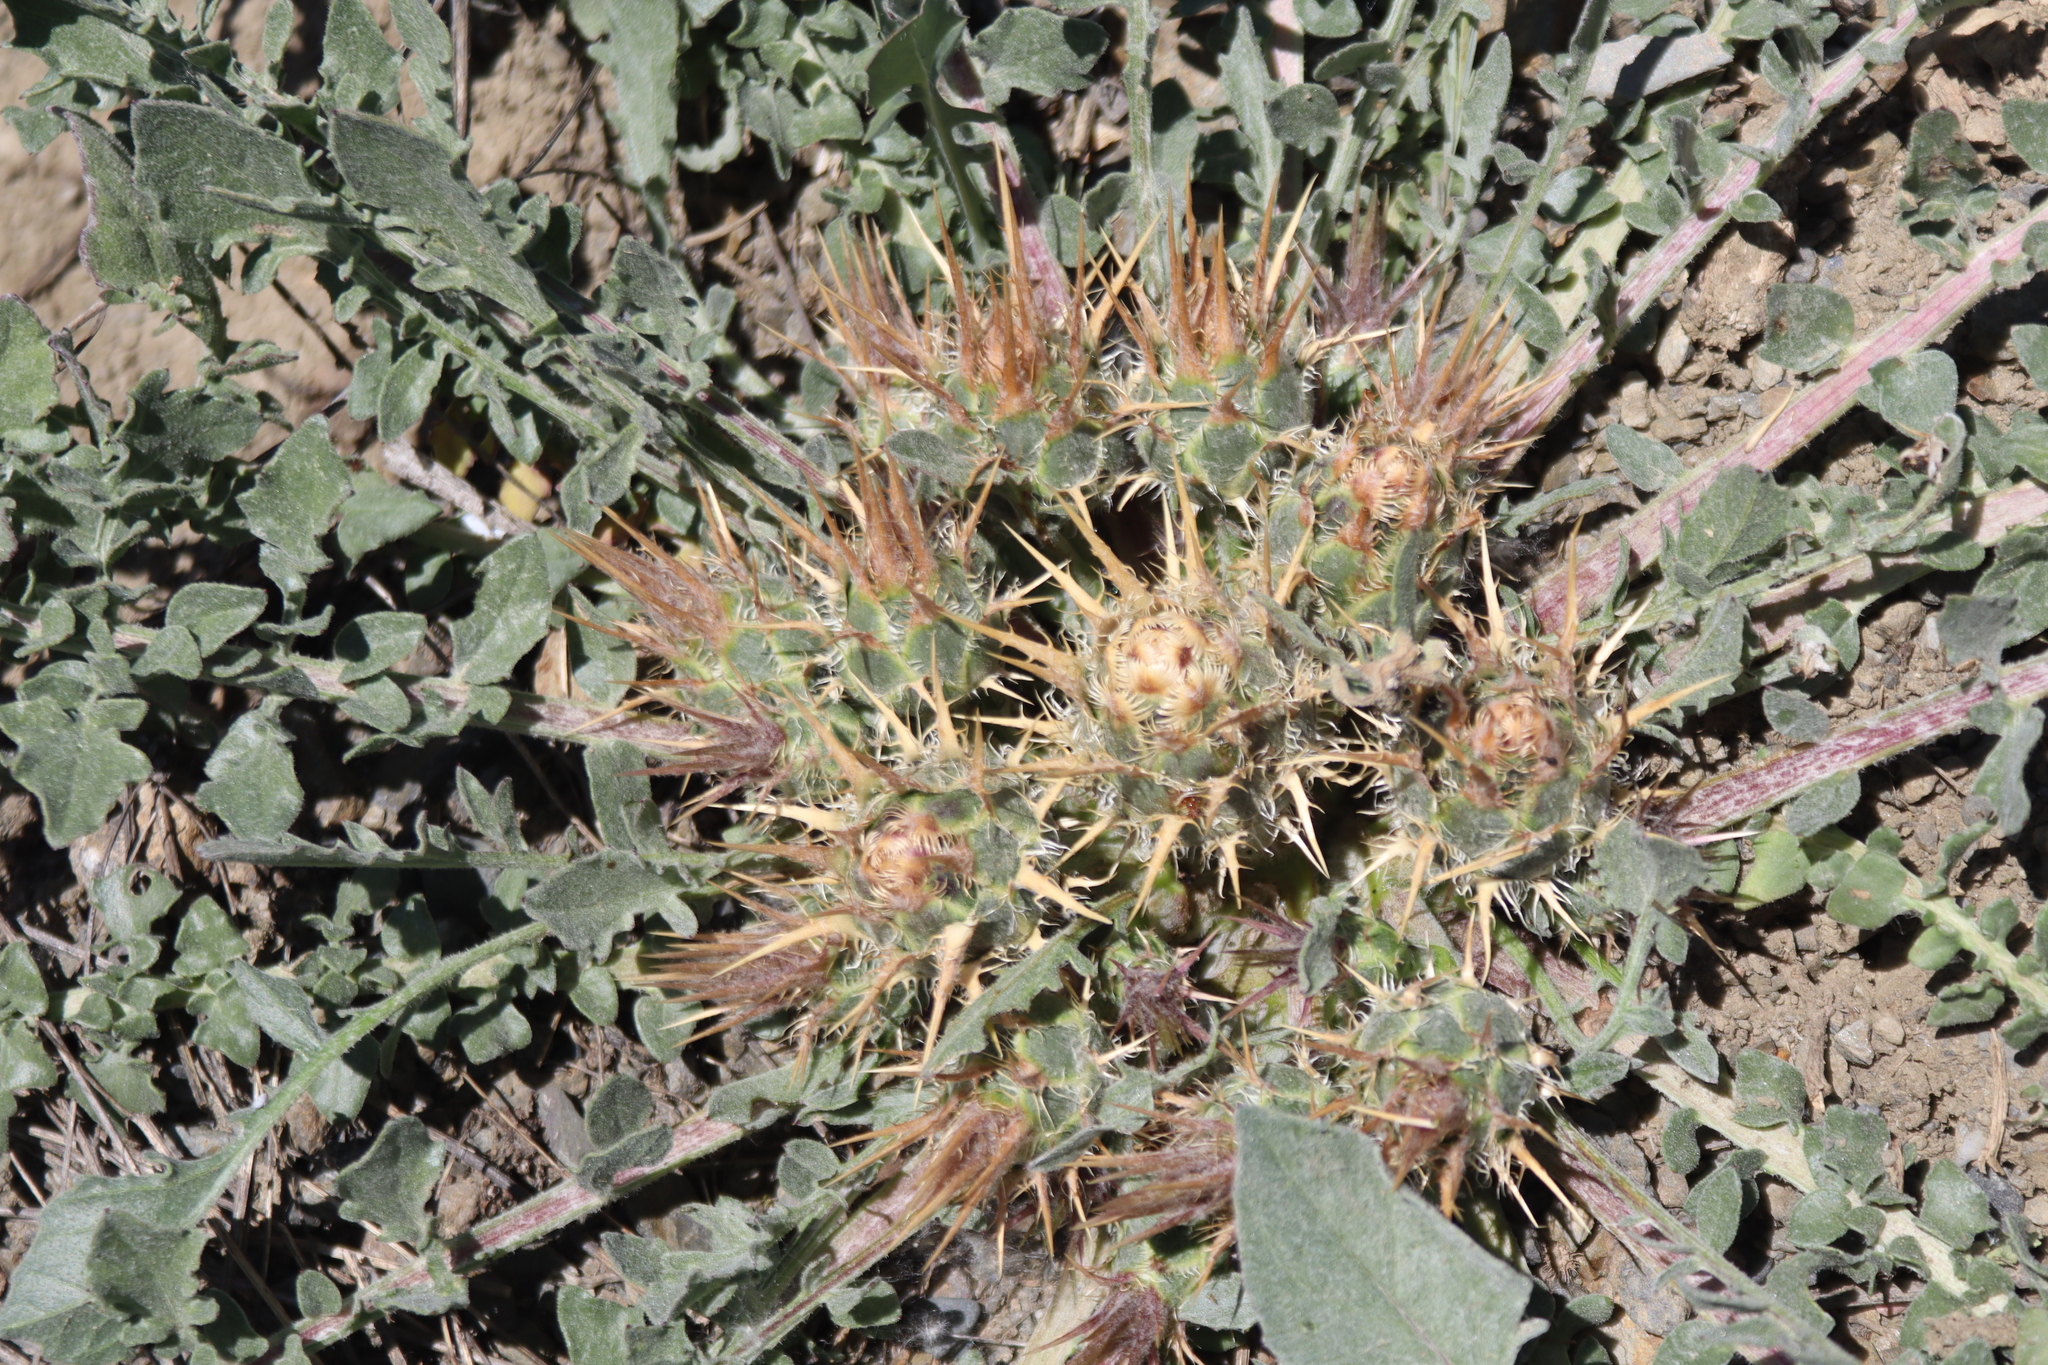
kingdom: Plantae
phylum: Tracheophyta
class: Magnoliopsida
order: Asterales
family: Asteraceae
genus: Centaurea
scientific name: Centaurea urvillei
